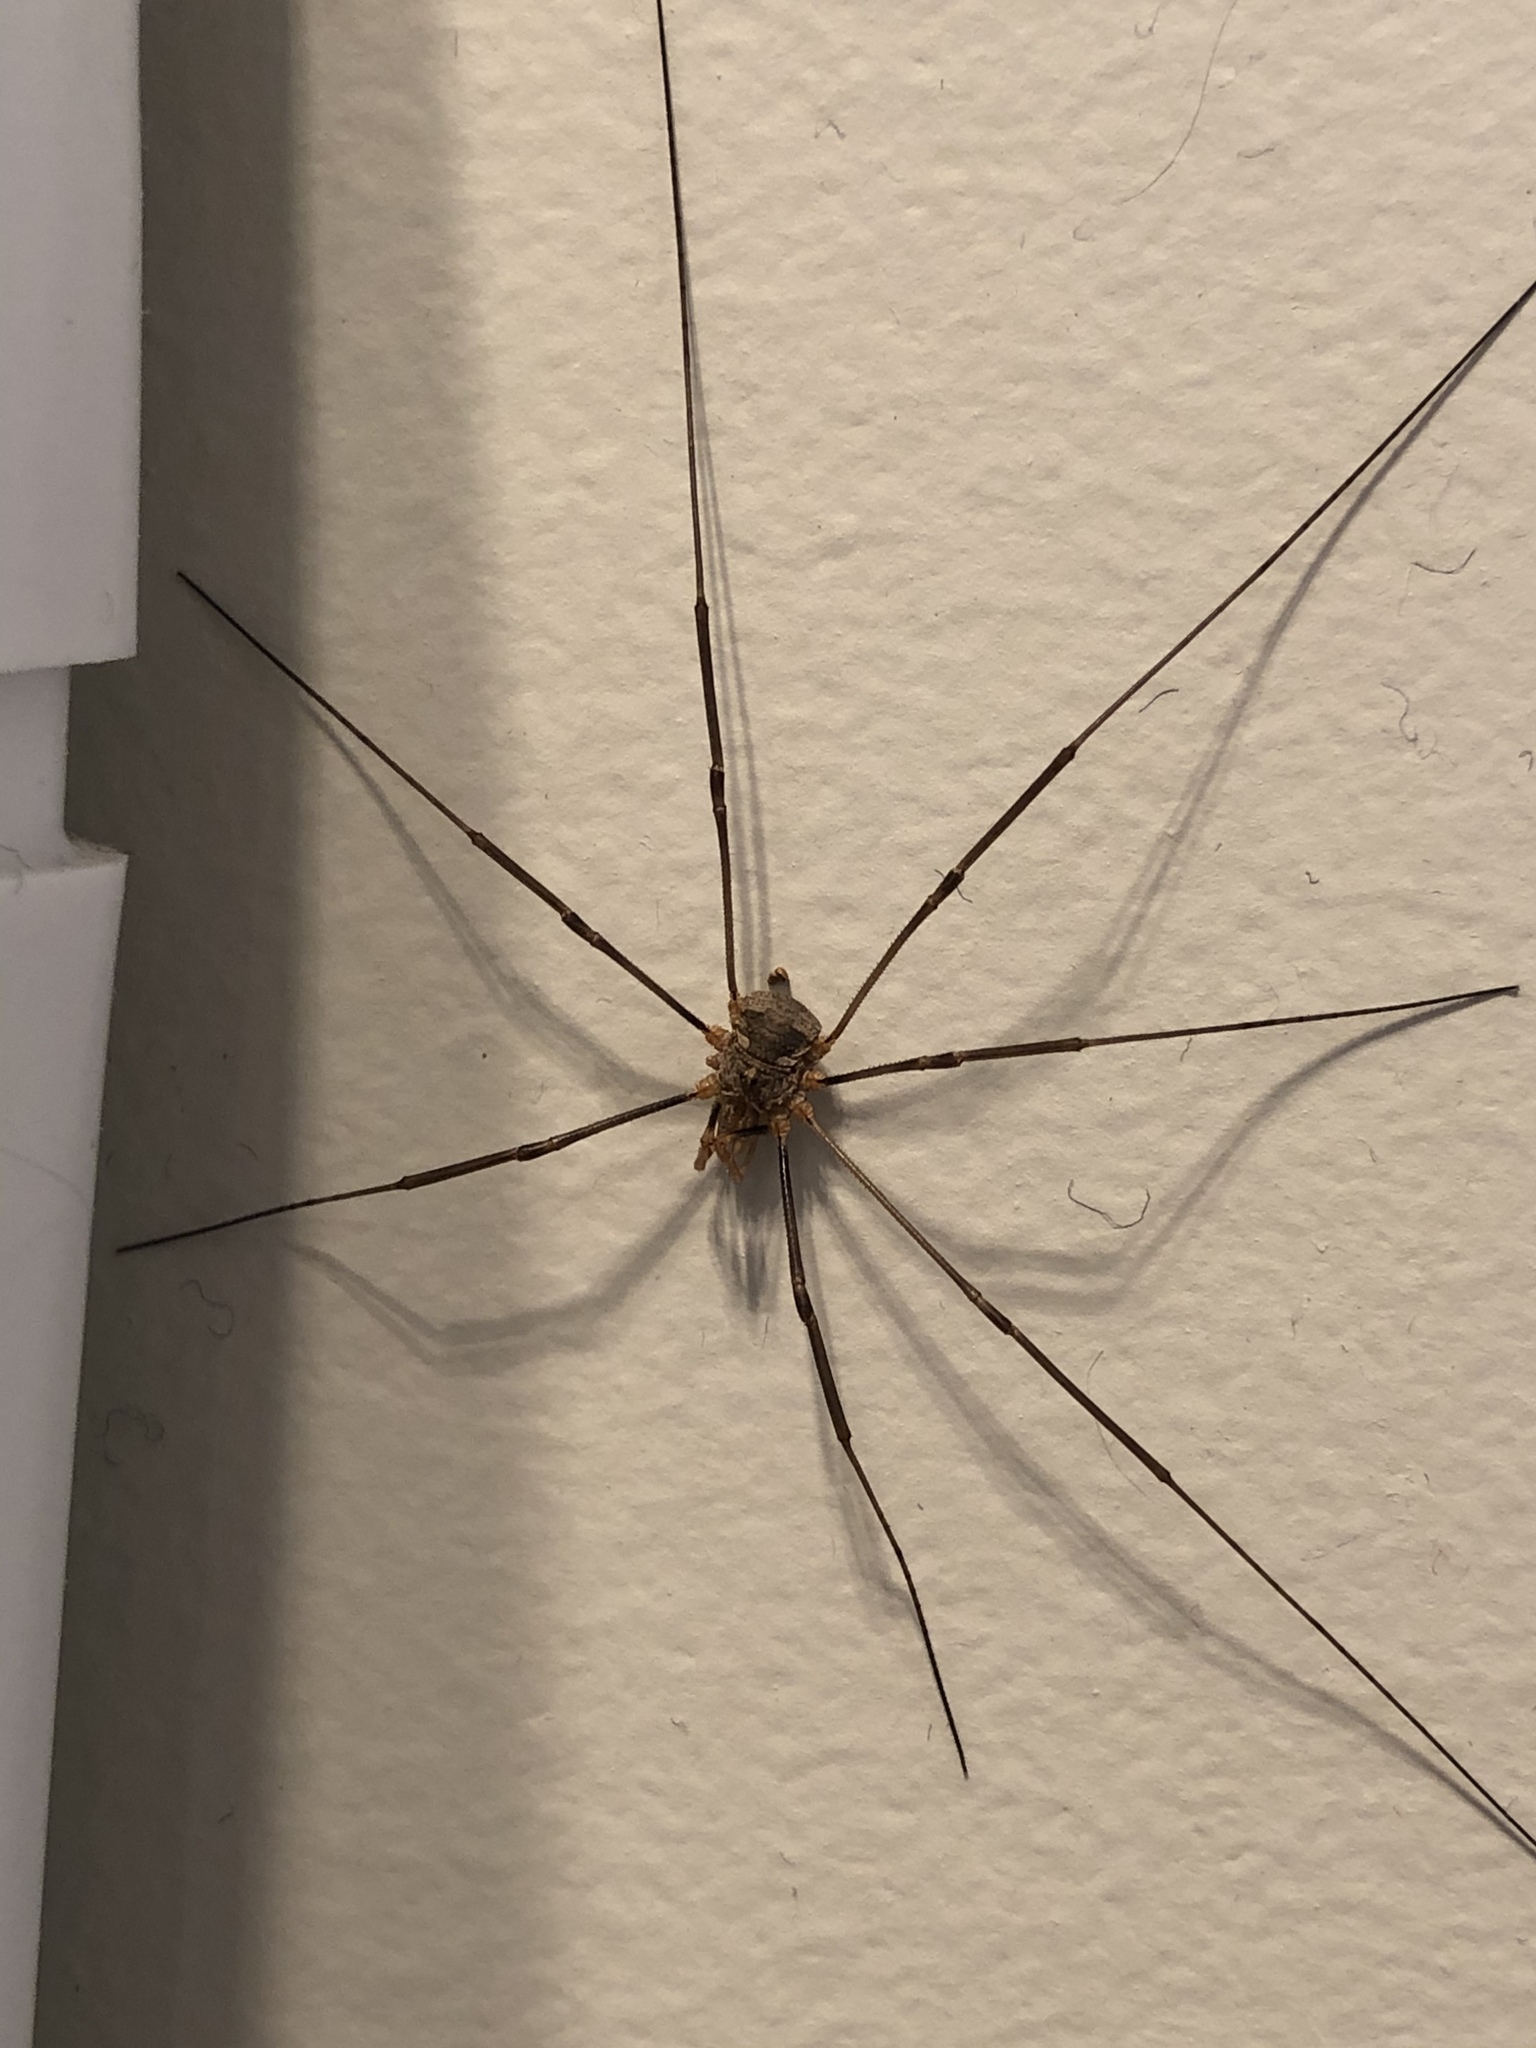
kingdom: Animalia
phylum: Arthropoda
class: Arachnida
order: Opiliones
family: Phalangiidae
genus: Phalangium
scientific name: Phalangium opilio
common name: Daddy longleg
